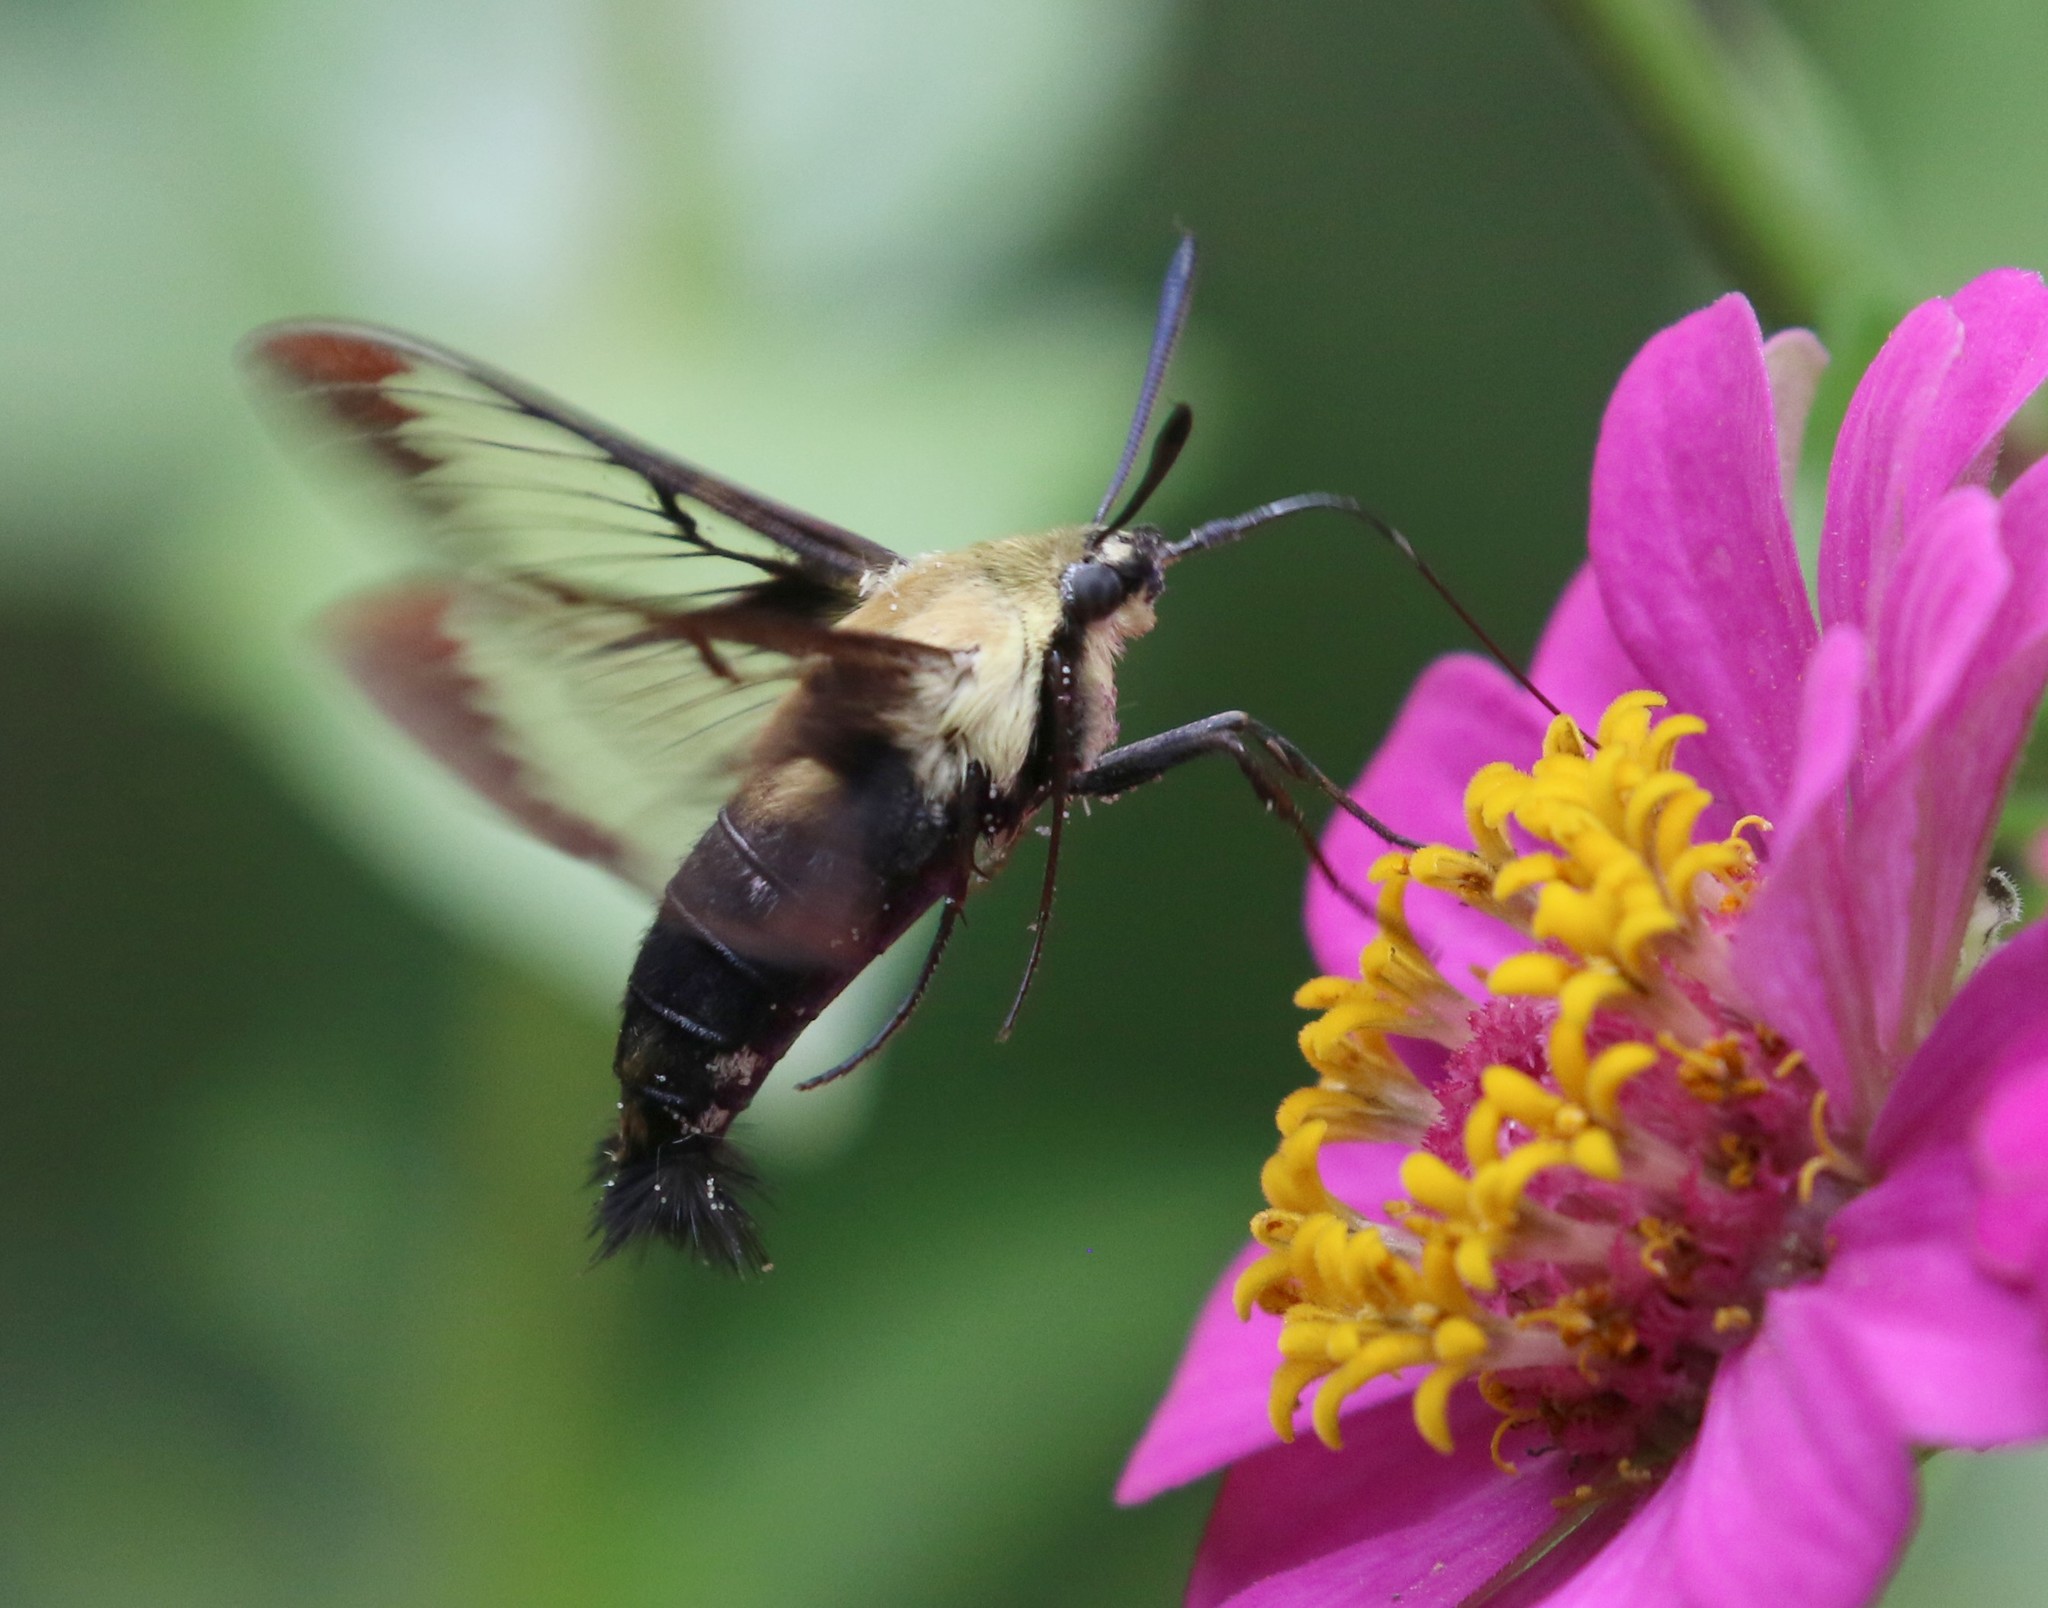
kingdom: Animalia
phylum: Arthropoda
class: Insecta
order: Lepidoptera
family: Sphingidae
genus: Hemaris
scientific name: Hemaris diffinis
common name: Bumblebee moth
